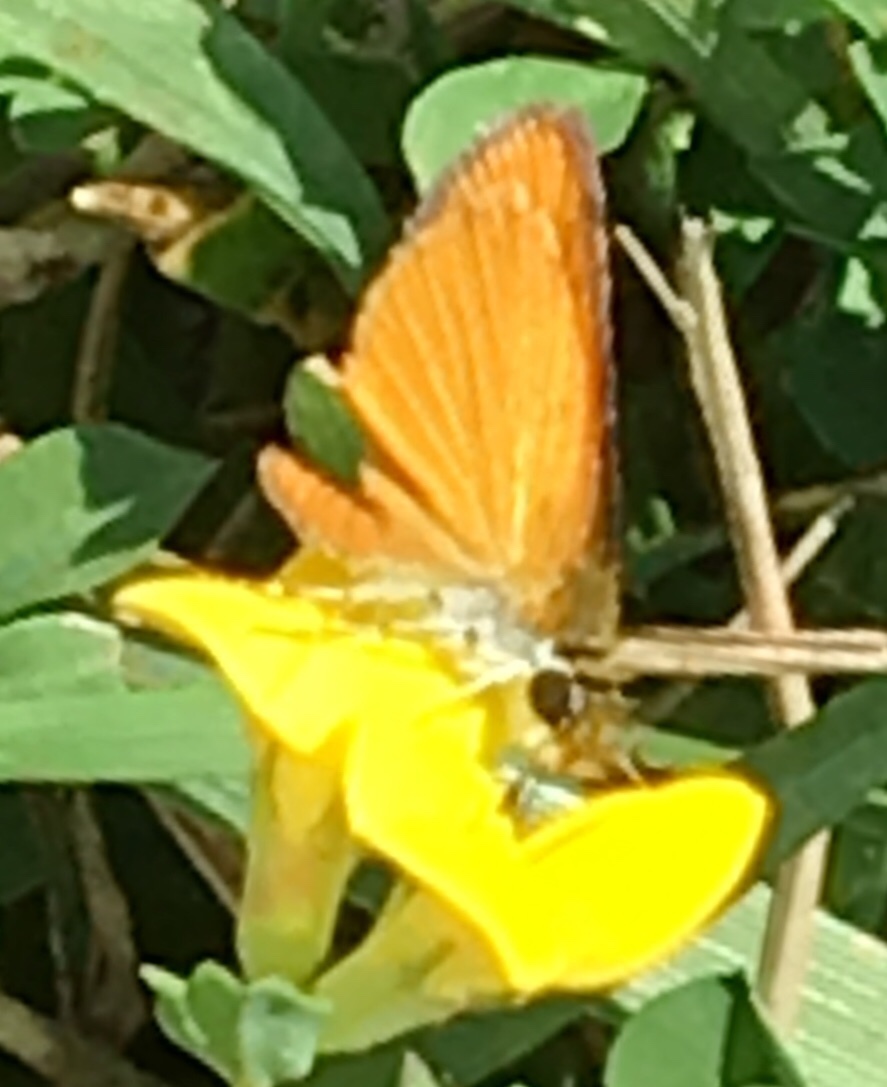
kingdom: Animalia
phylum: Arthropoda
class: Insecta
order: Lepidoptera
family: Hesperiidae
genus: Ancyloxypha
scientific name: Ancyloxypha numitor
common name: Least skipper
